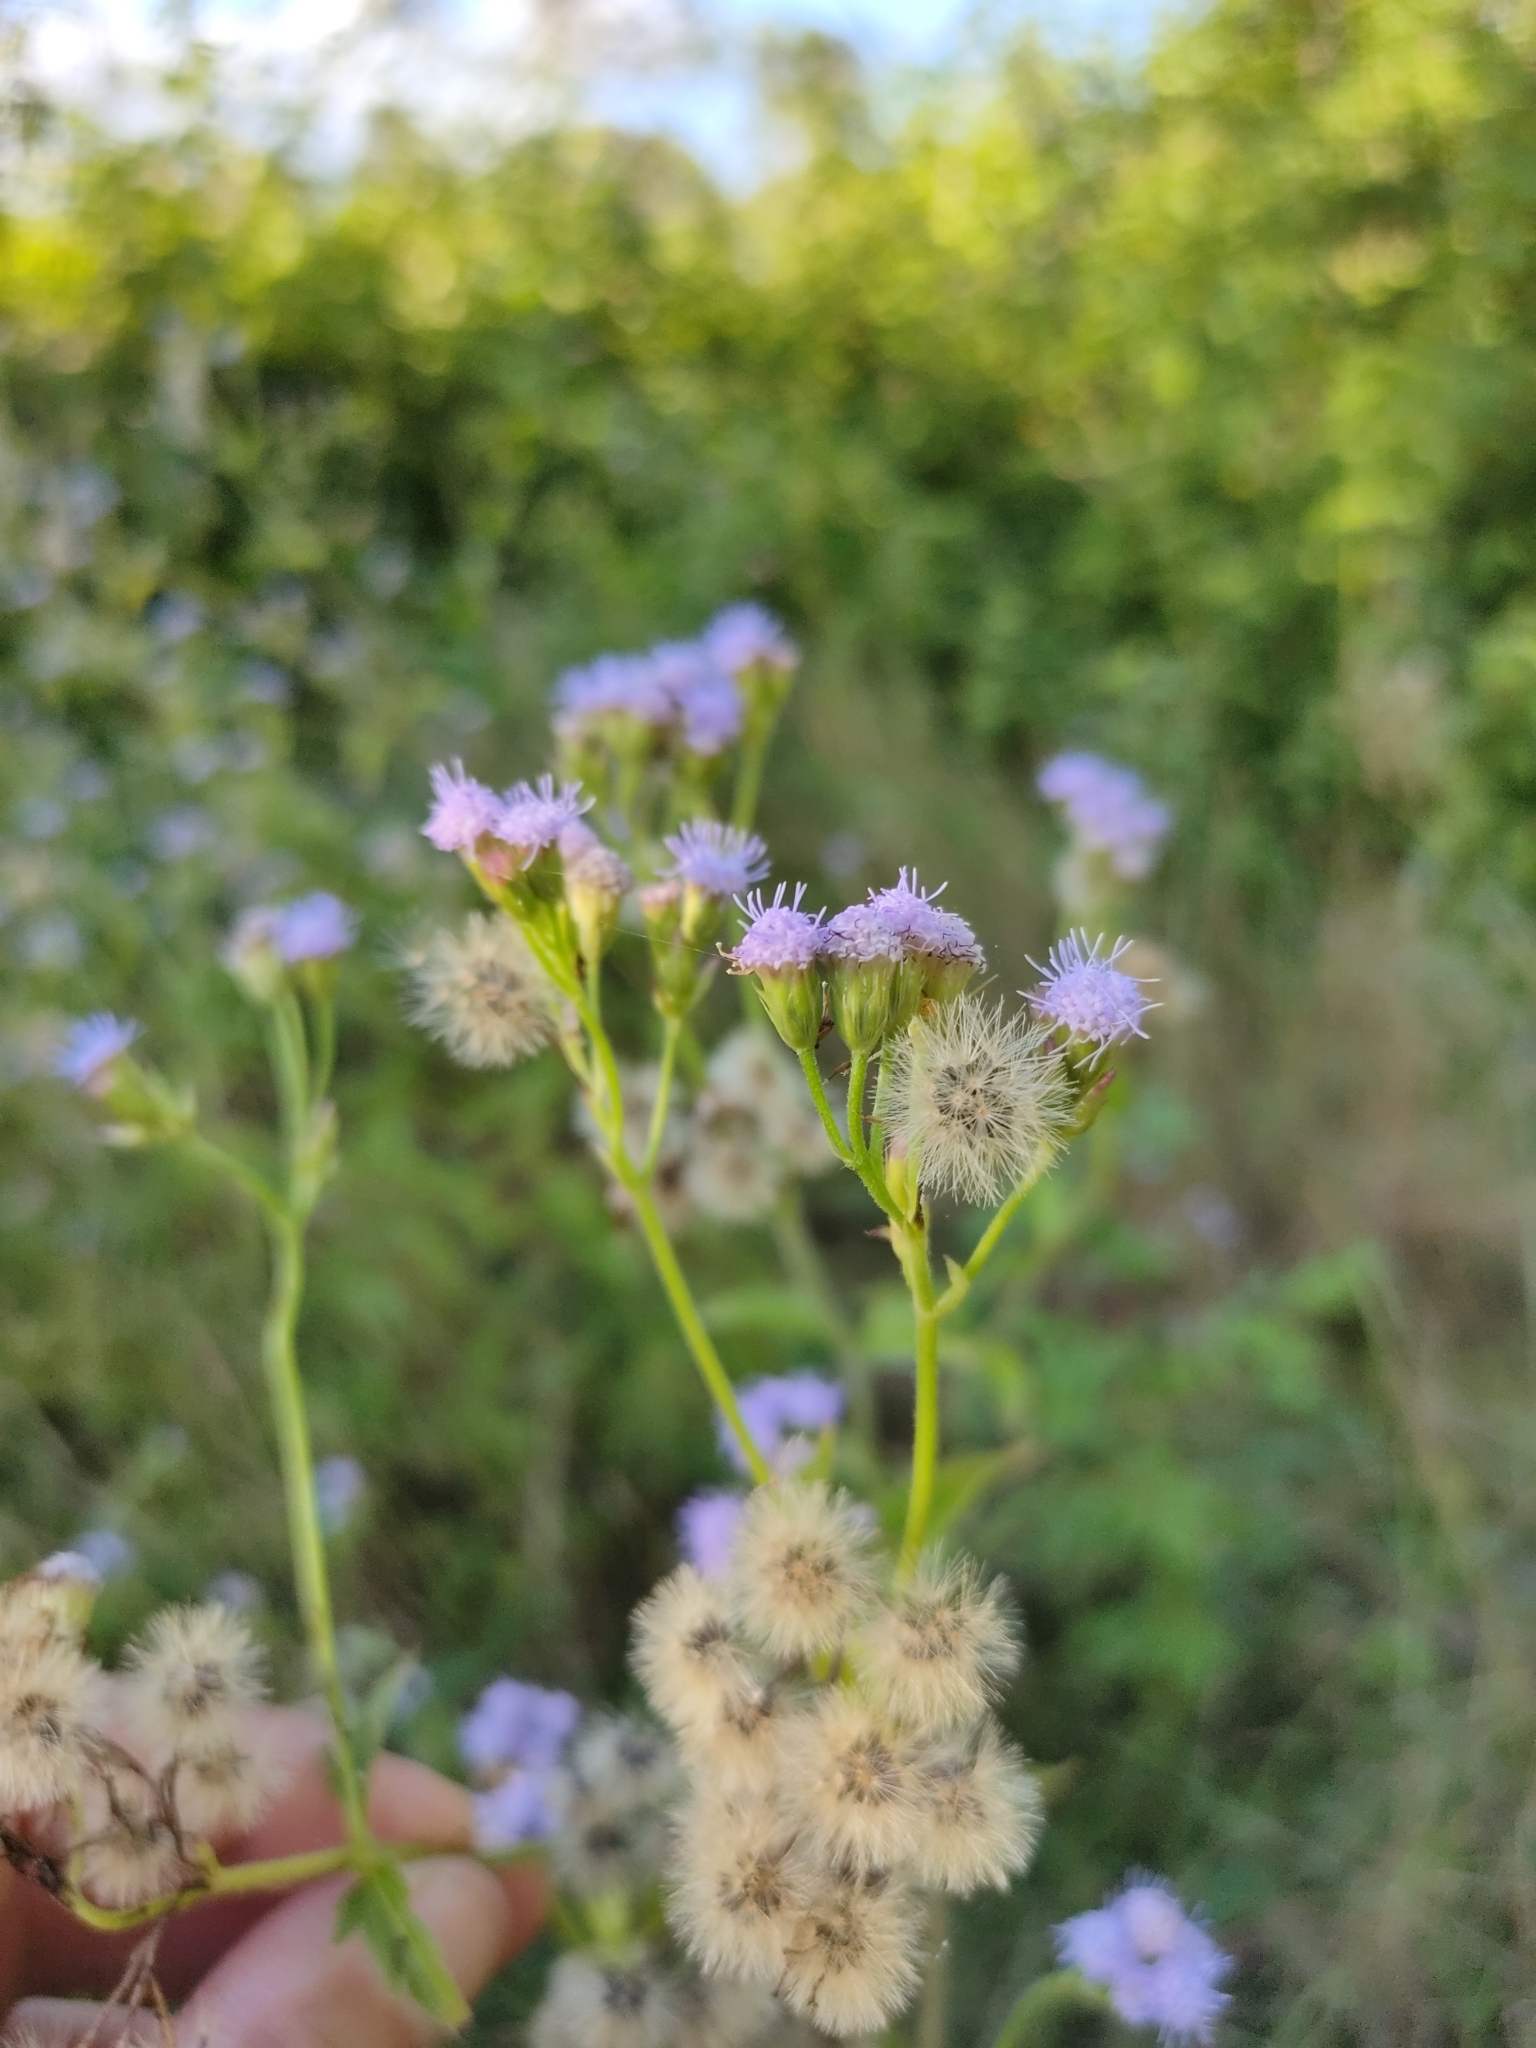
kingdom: Plantae
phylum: Tracheophyta
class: Magnoliopsida
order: Asterales
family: Asteraceae
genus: Praxelis
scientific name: Praxelis clematidea
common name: Praxelis
